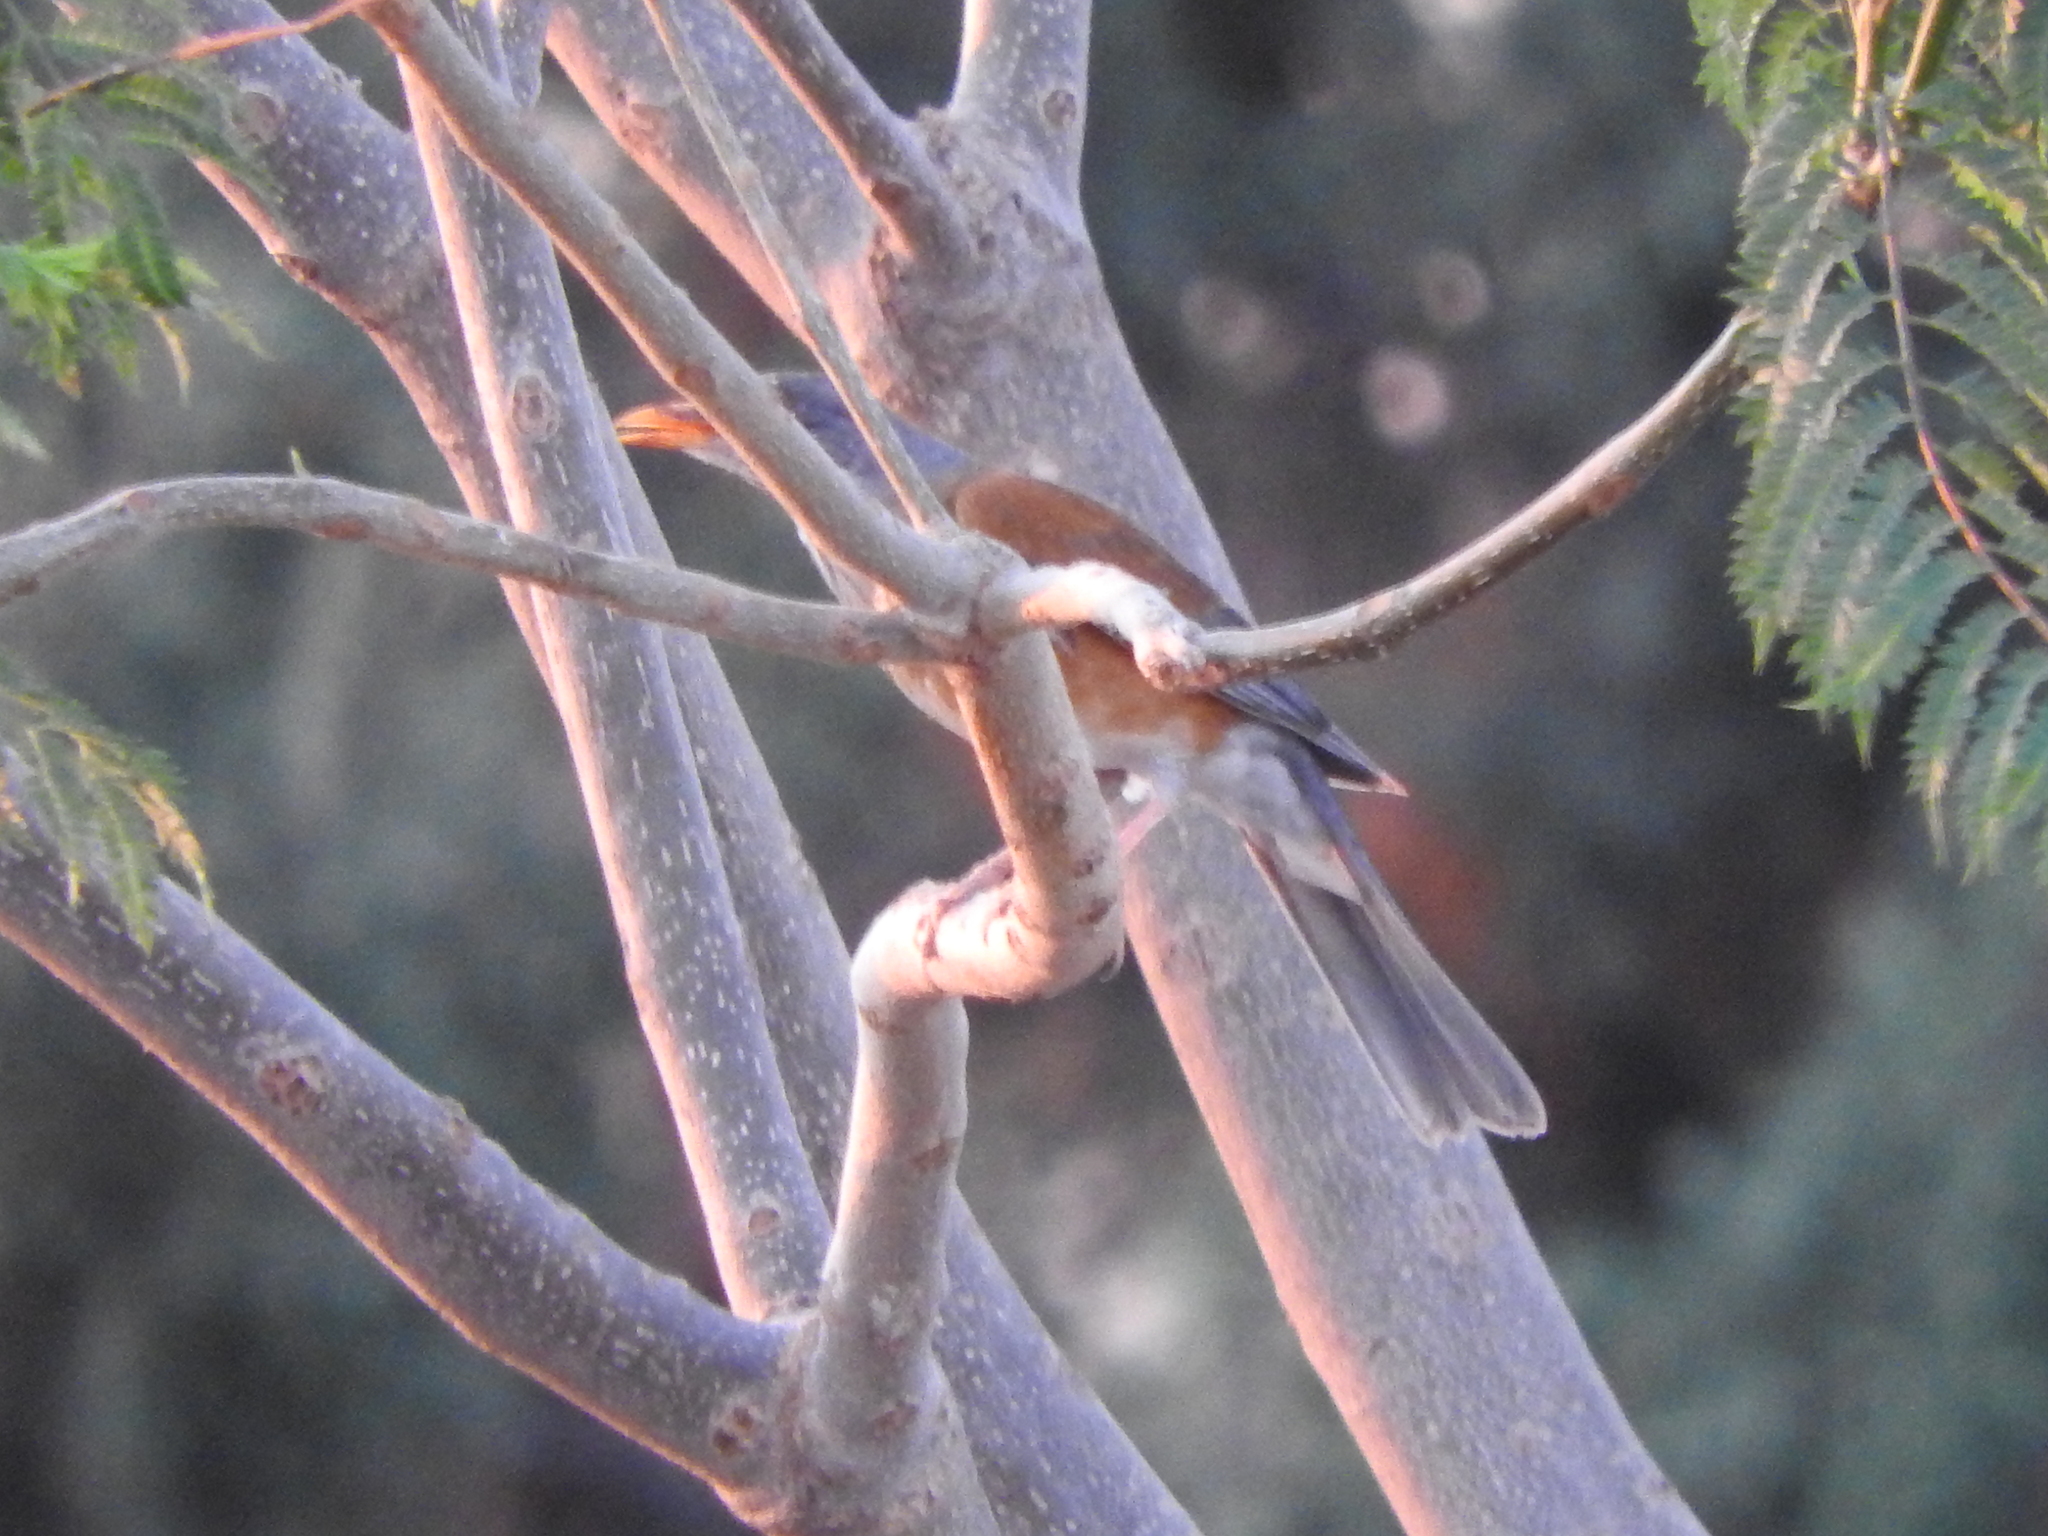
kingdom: Animalia
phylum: Chordata
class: Aves
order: Passeriformes
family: Turdidae
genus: Turdus
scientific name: Turdus rufopalliatus
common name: Rufous-backed robin
